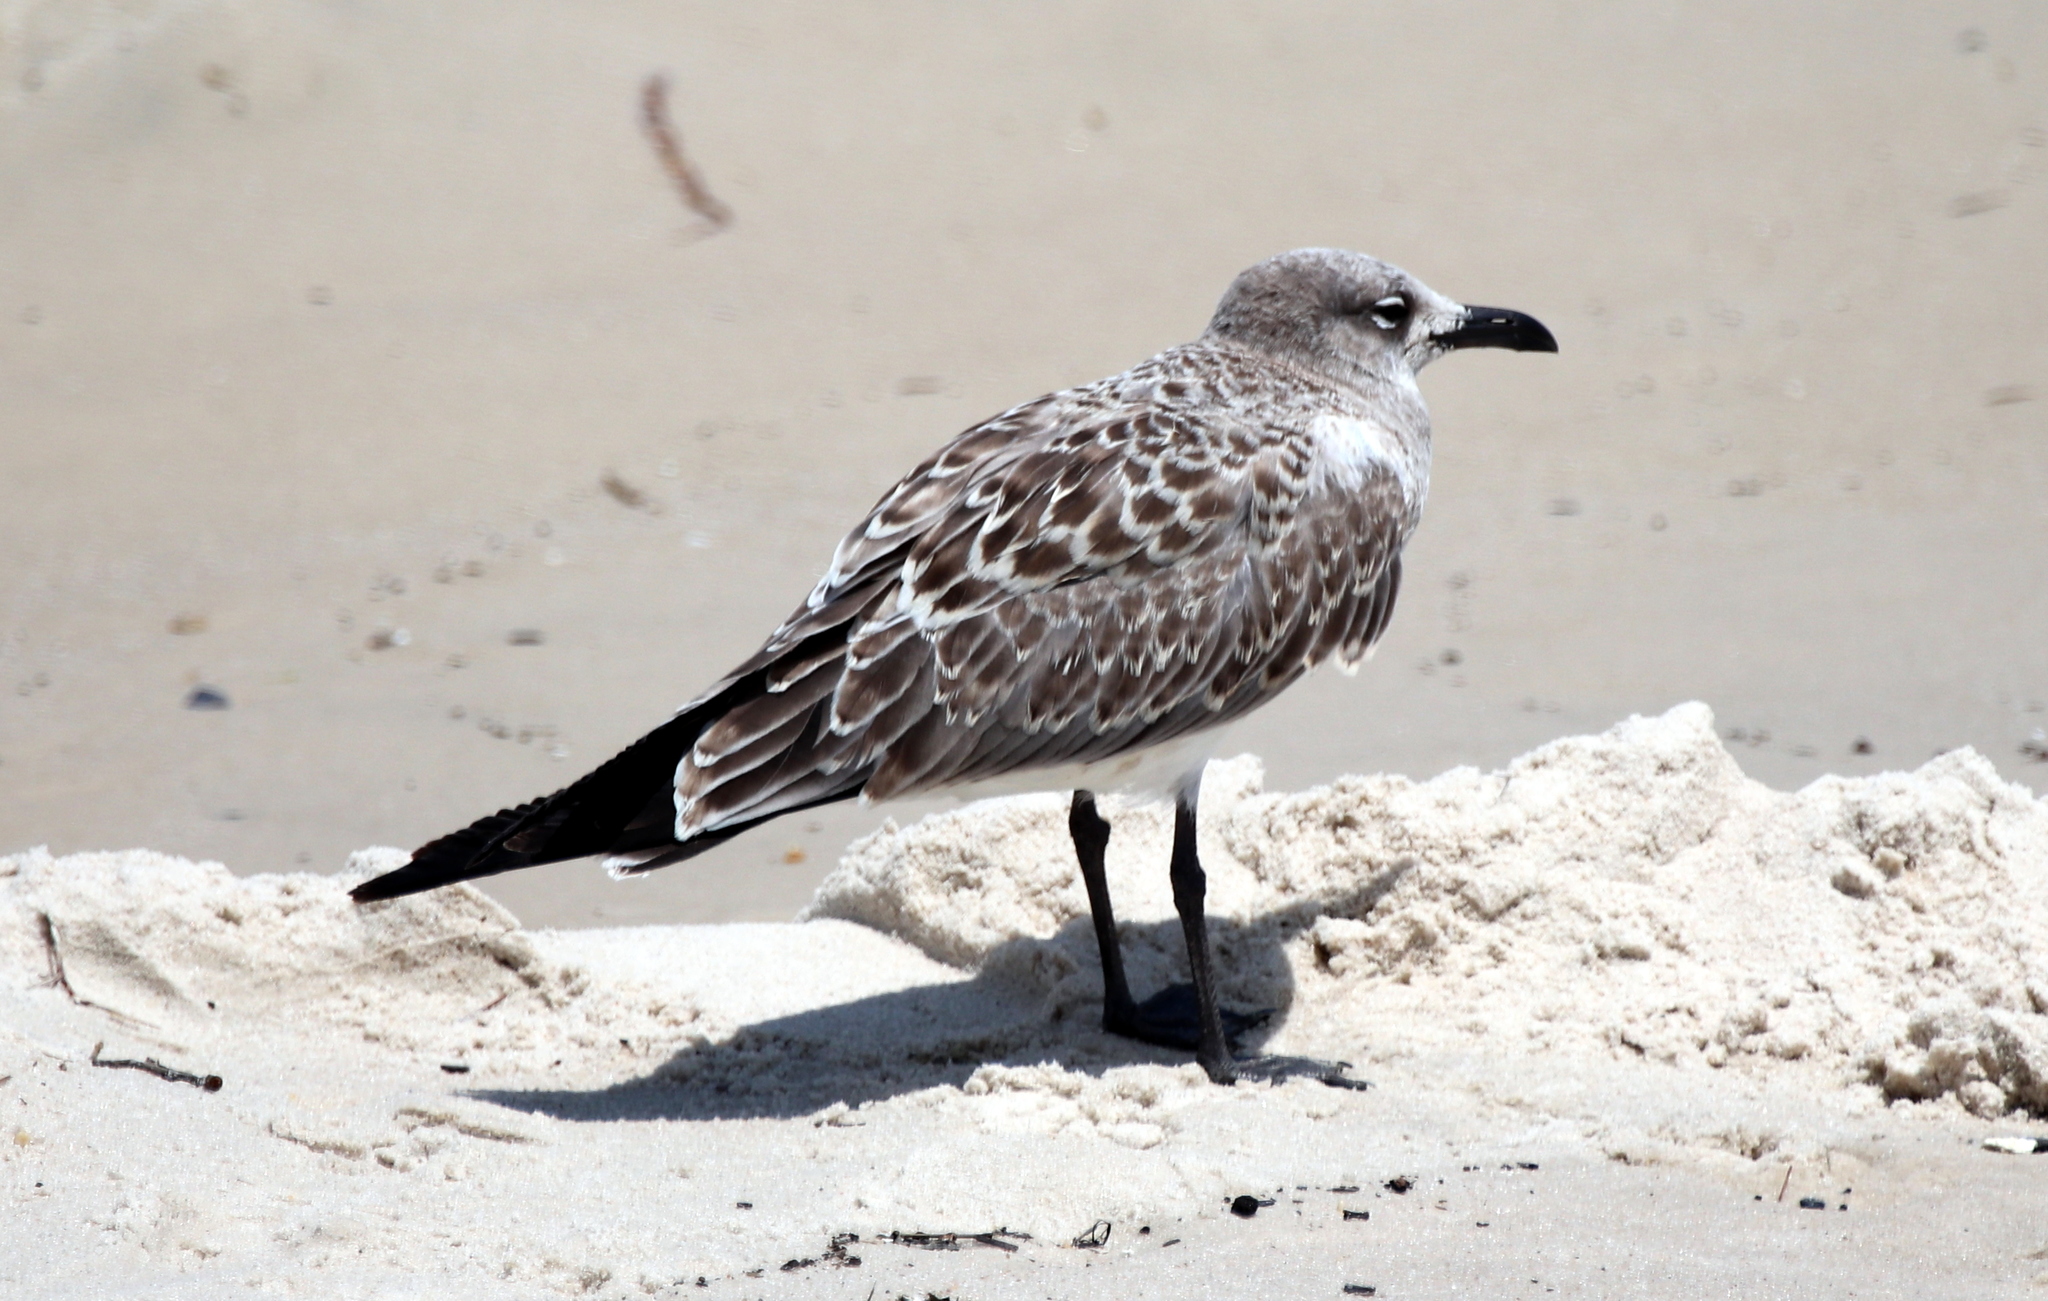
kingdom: Animalia
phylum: Chordata
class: Aves
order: Charadriiformes
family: Laridae
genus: Leucophaeus
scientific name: Leucophaeus atricilla
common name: Laughing gull
